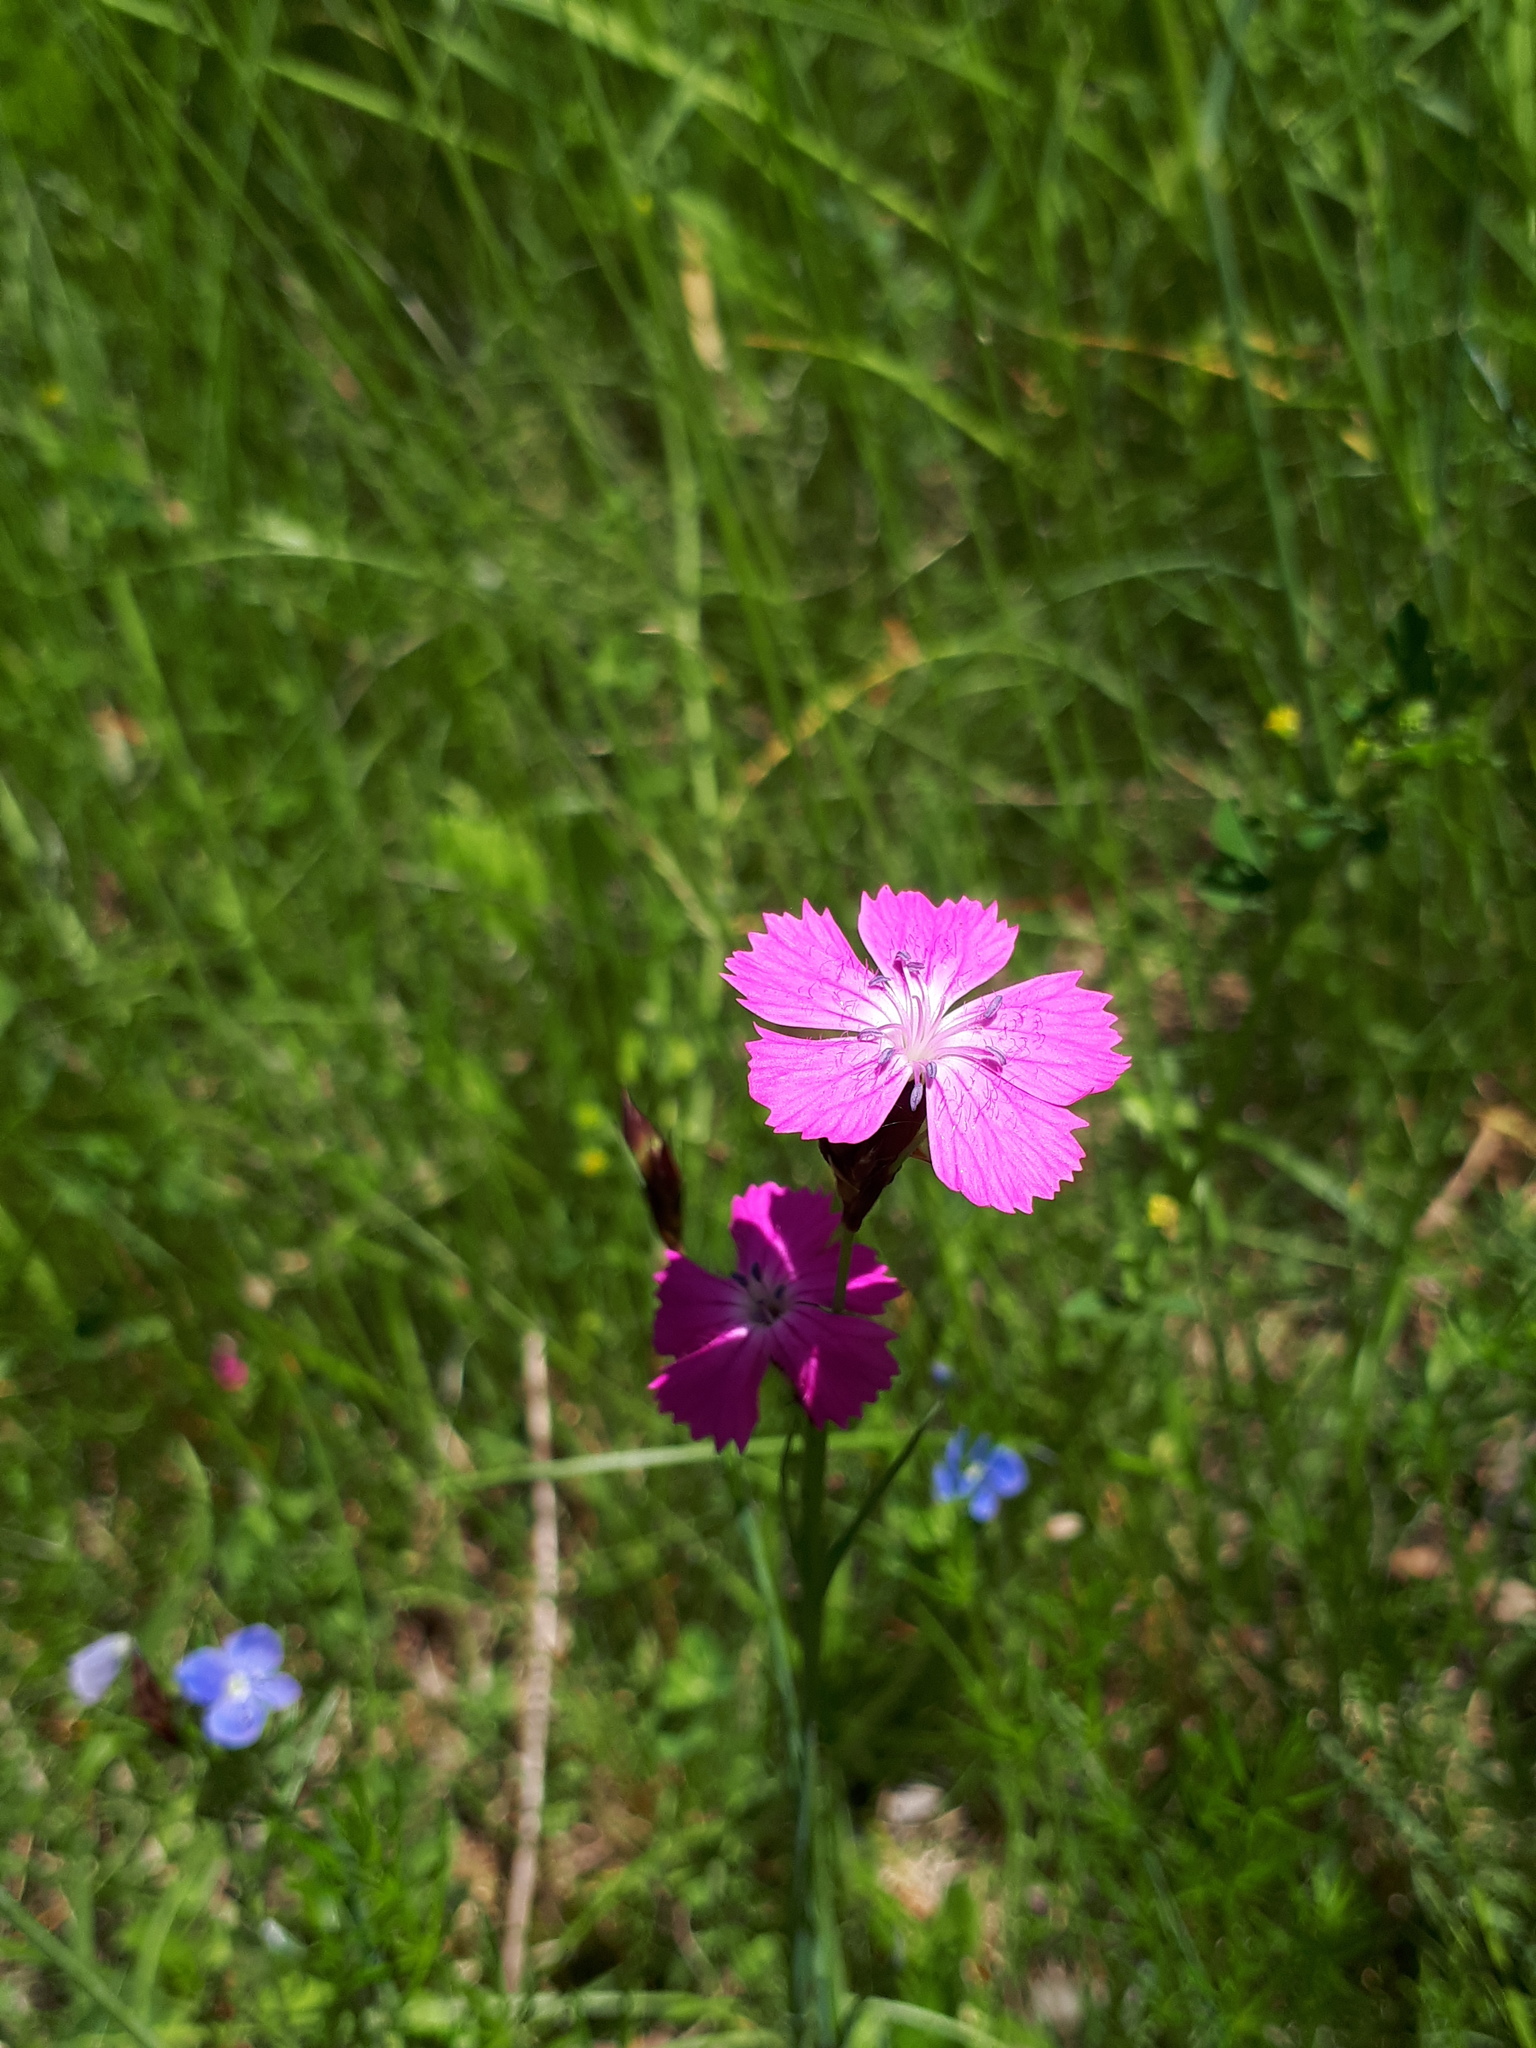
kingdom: Plantae
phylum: Tracheophyta
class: Magnoliopsida
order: Caryophyllales
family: Caryophyllaceae
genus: Dianthus
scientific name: Dianthus carthusianorum
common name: Carthusian pink
